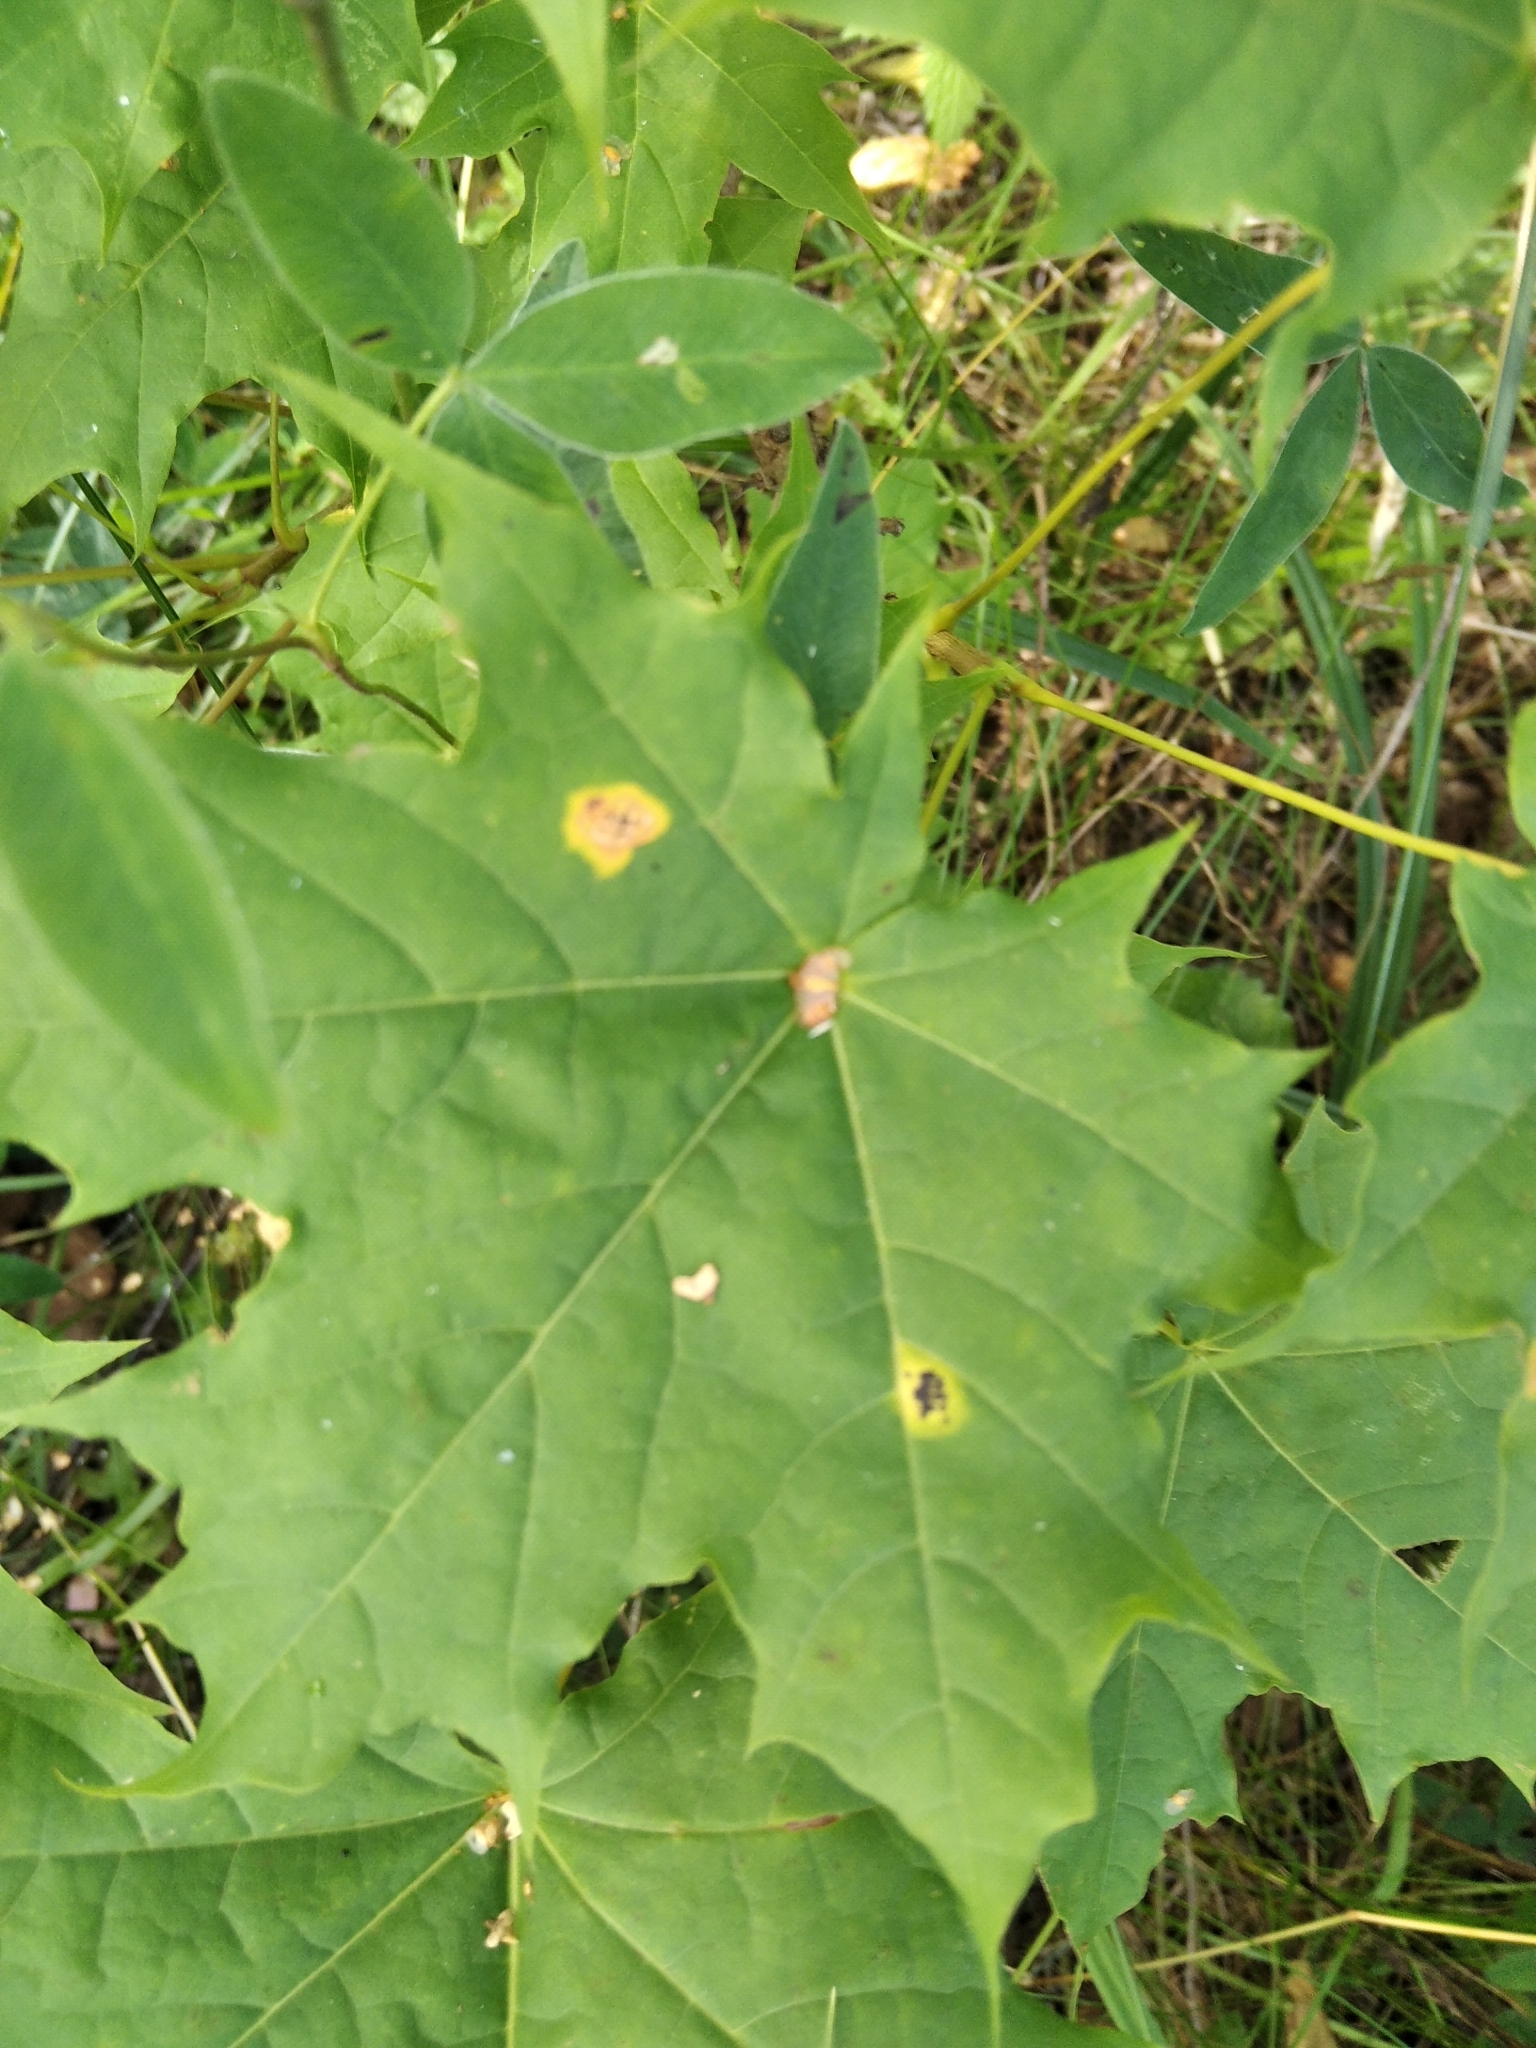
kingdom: Plantae
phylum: Tracheophyta
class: Magnoliopsida
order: Sapindales
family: Sapindaceae
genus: Acer
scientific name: Acer platanoides
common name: Norway maple
